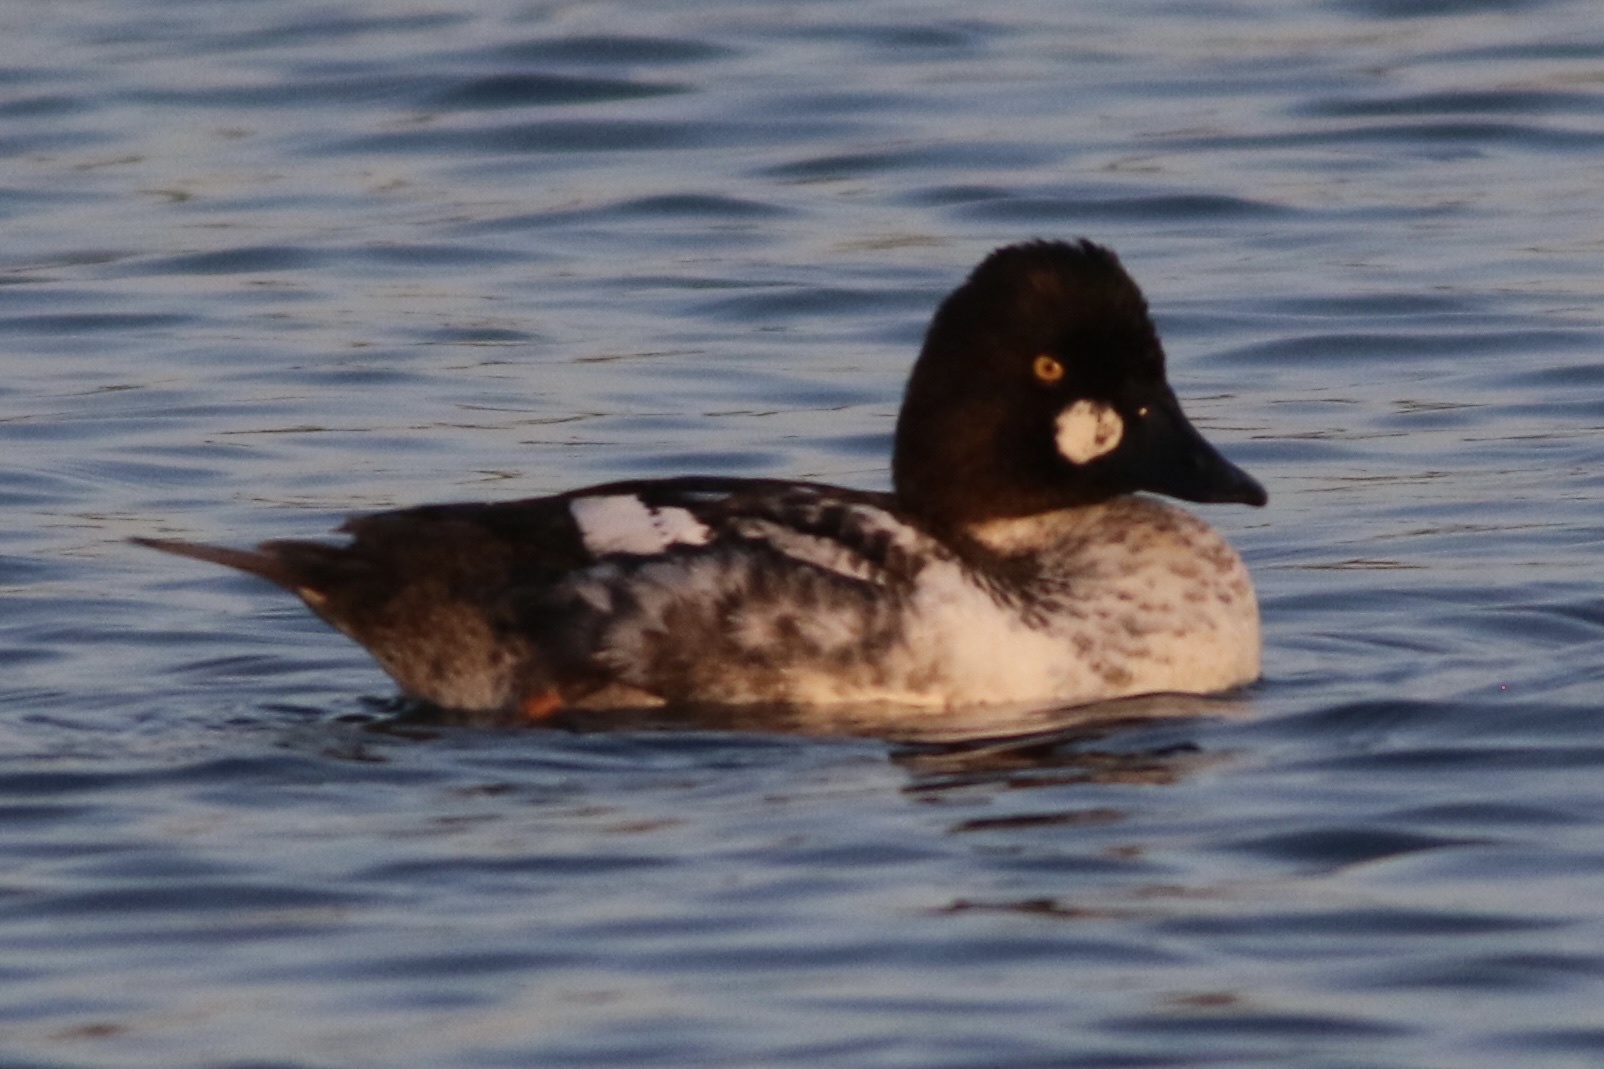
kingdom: Animalia
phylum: Chordata
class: Aves
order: Anseriformes
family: Anatidae
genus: Bucephala
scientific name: Bucephala clangula
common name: Common goldeneye
